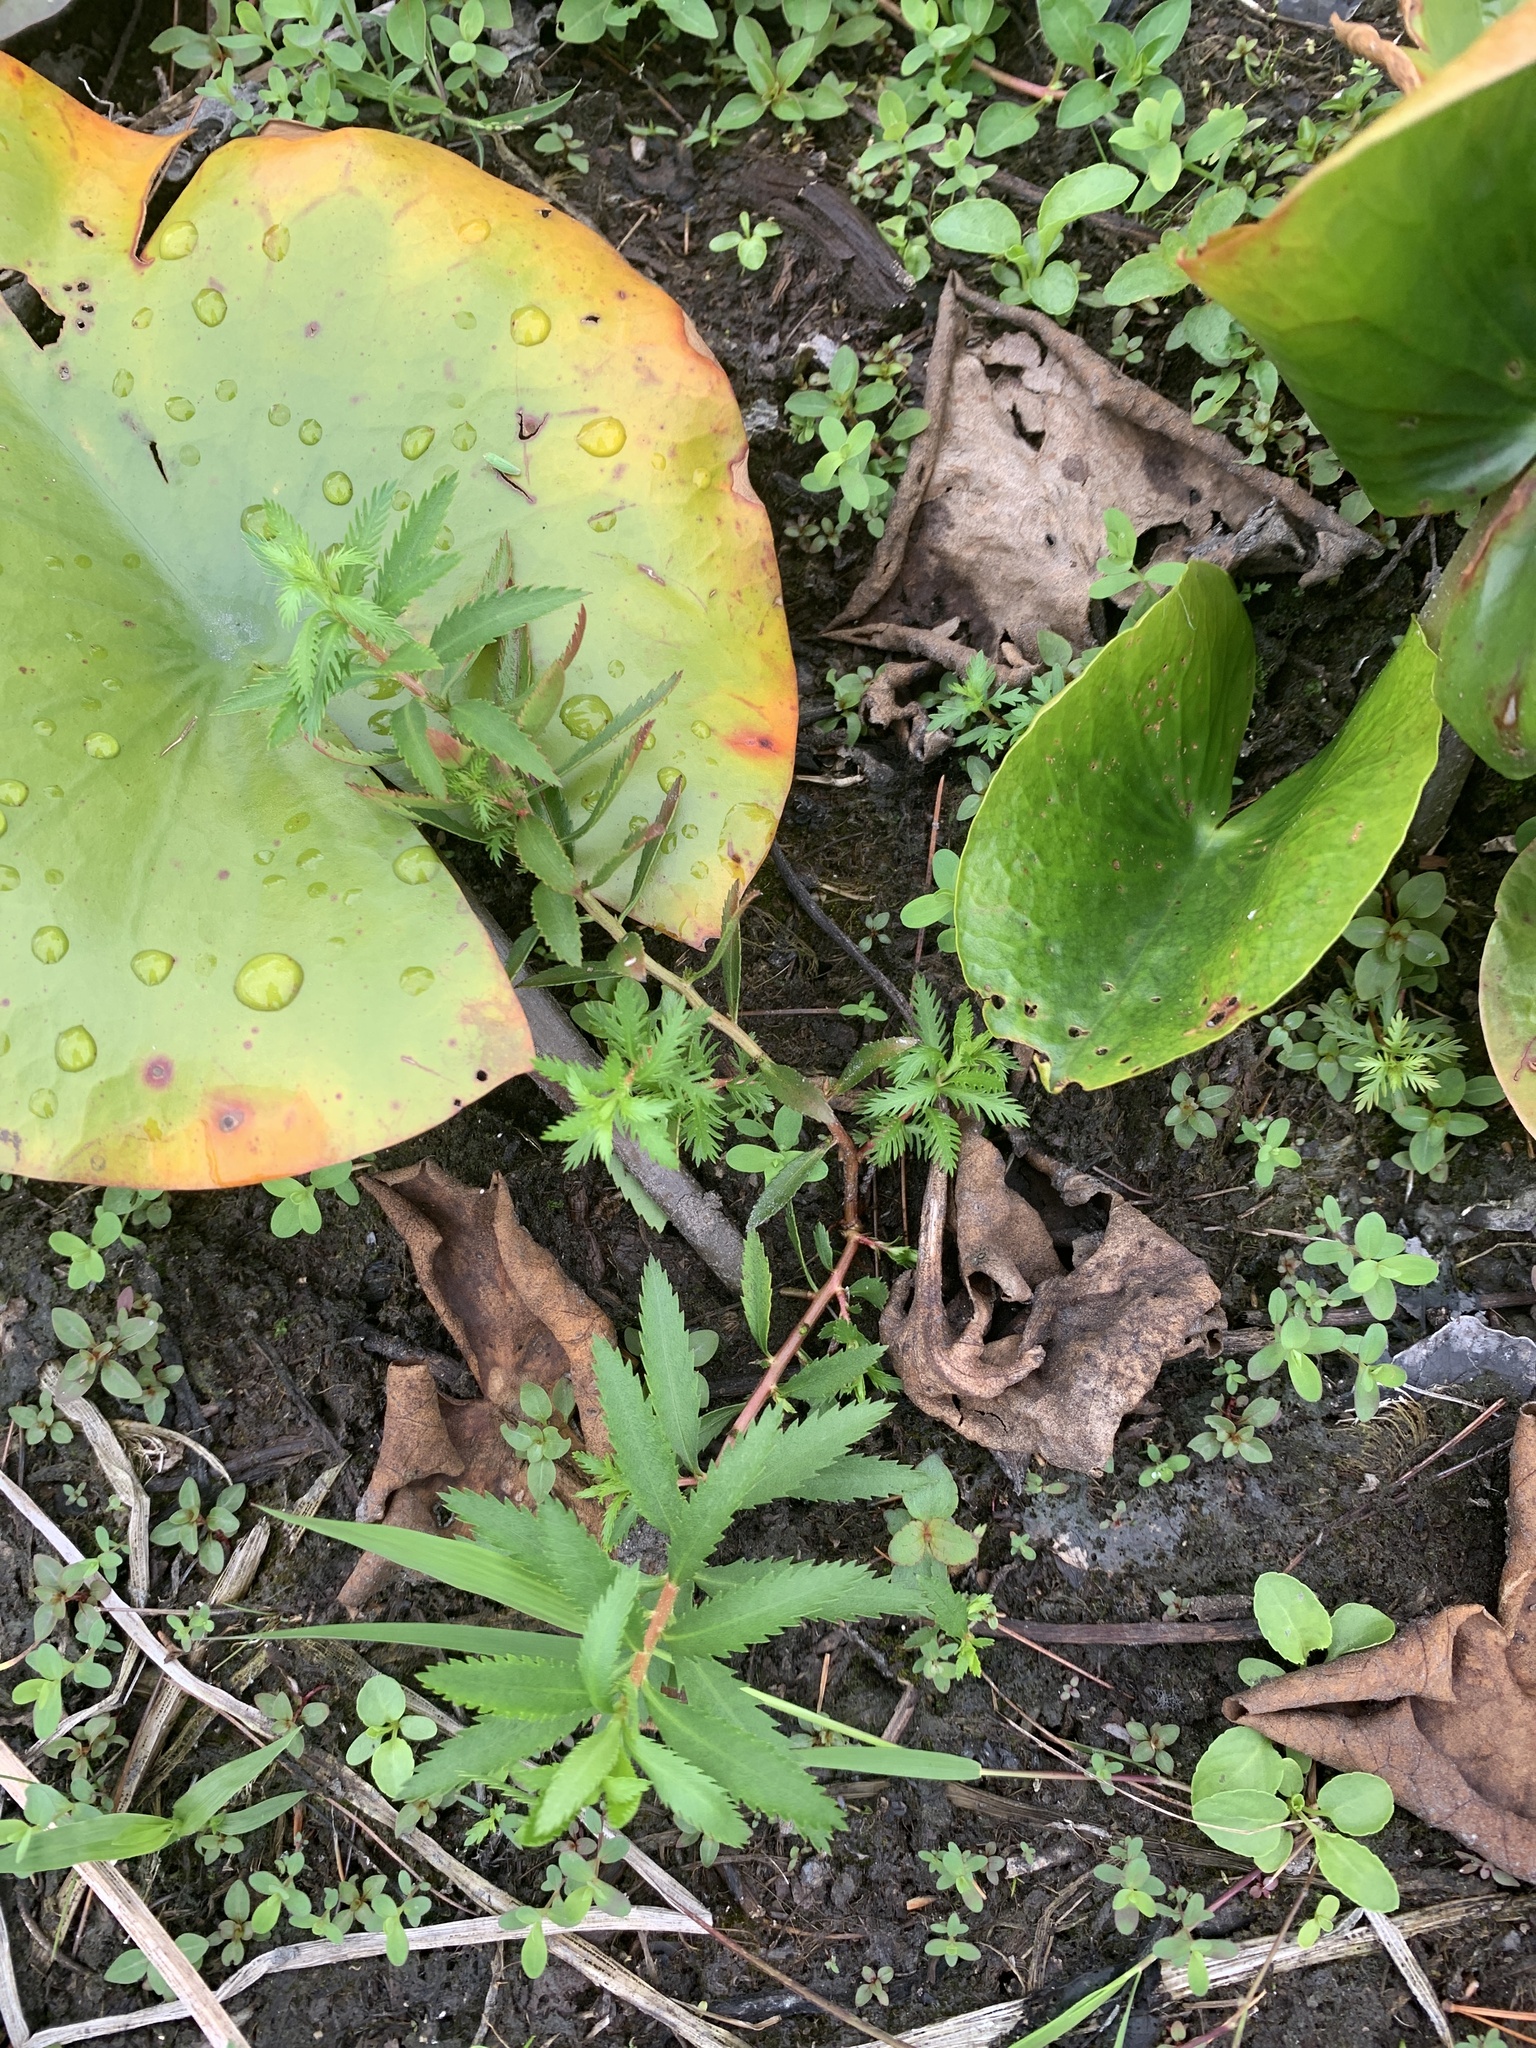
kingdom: Plantae
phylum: Tracheophyta
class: Magnoliopsida
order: Saxifragales
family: Haloragaceae
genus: Proserpinaca
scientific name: Proserpinaca palustris
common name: Marsh mermaidweed
